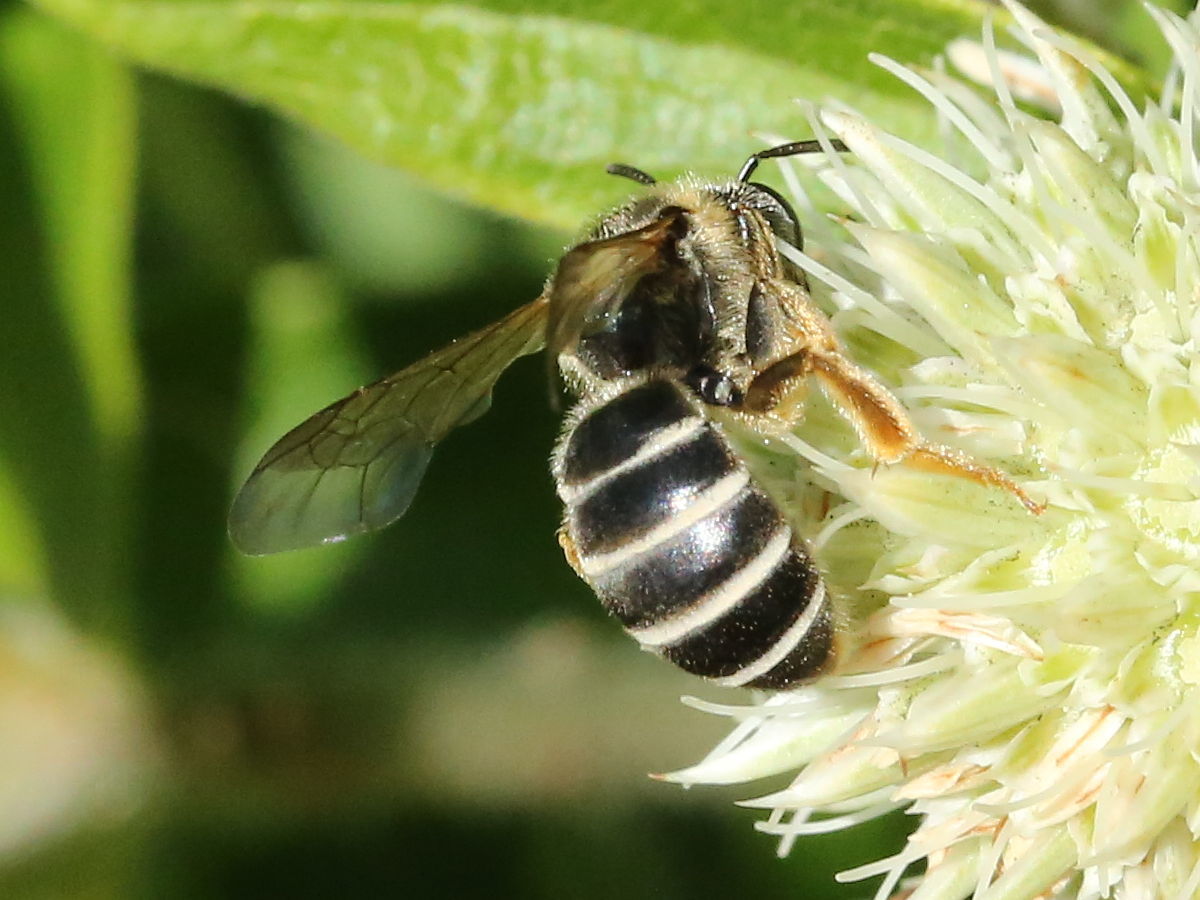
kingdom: Animalia
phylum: Arthropoda
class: Insecta
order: Hymenoptera
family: Halictidae
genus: Halictus
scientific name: Halictus rubicundus
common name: Orange-legged furrow bee
